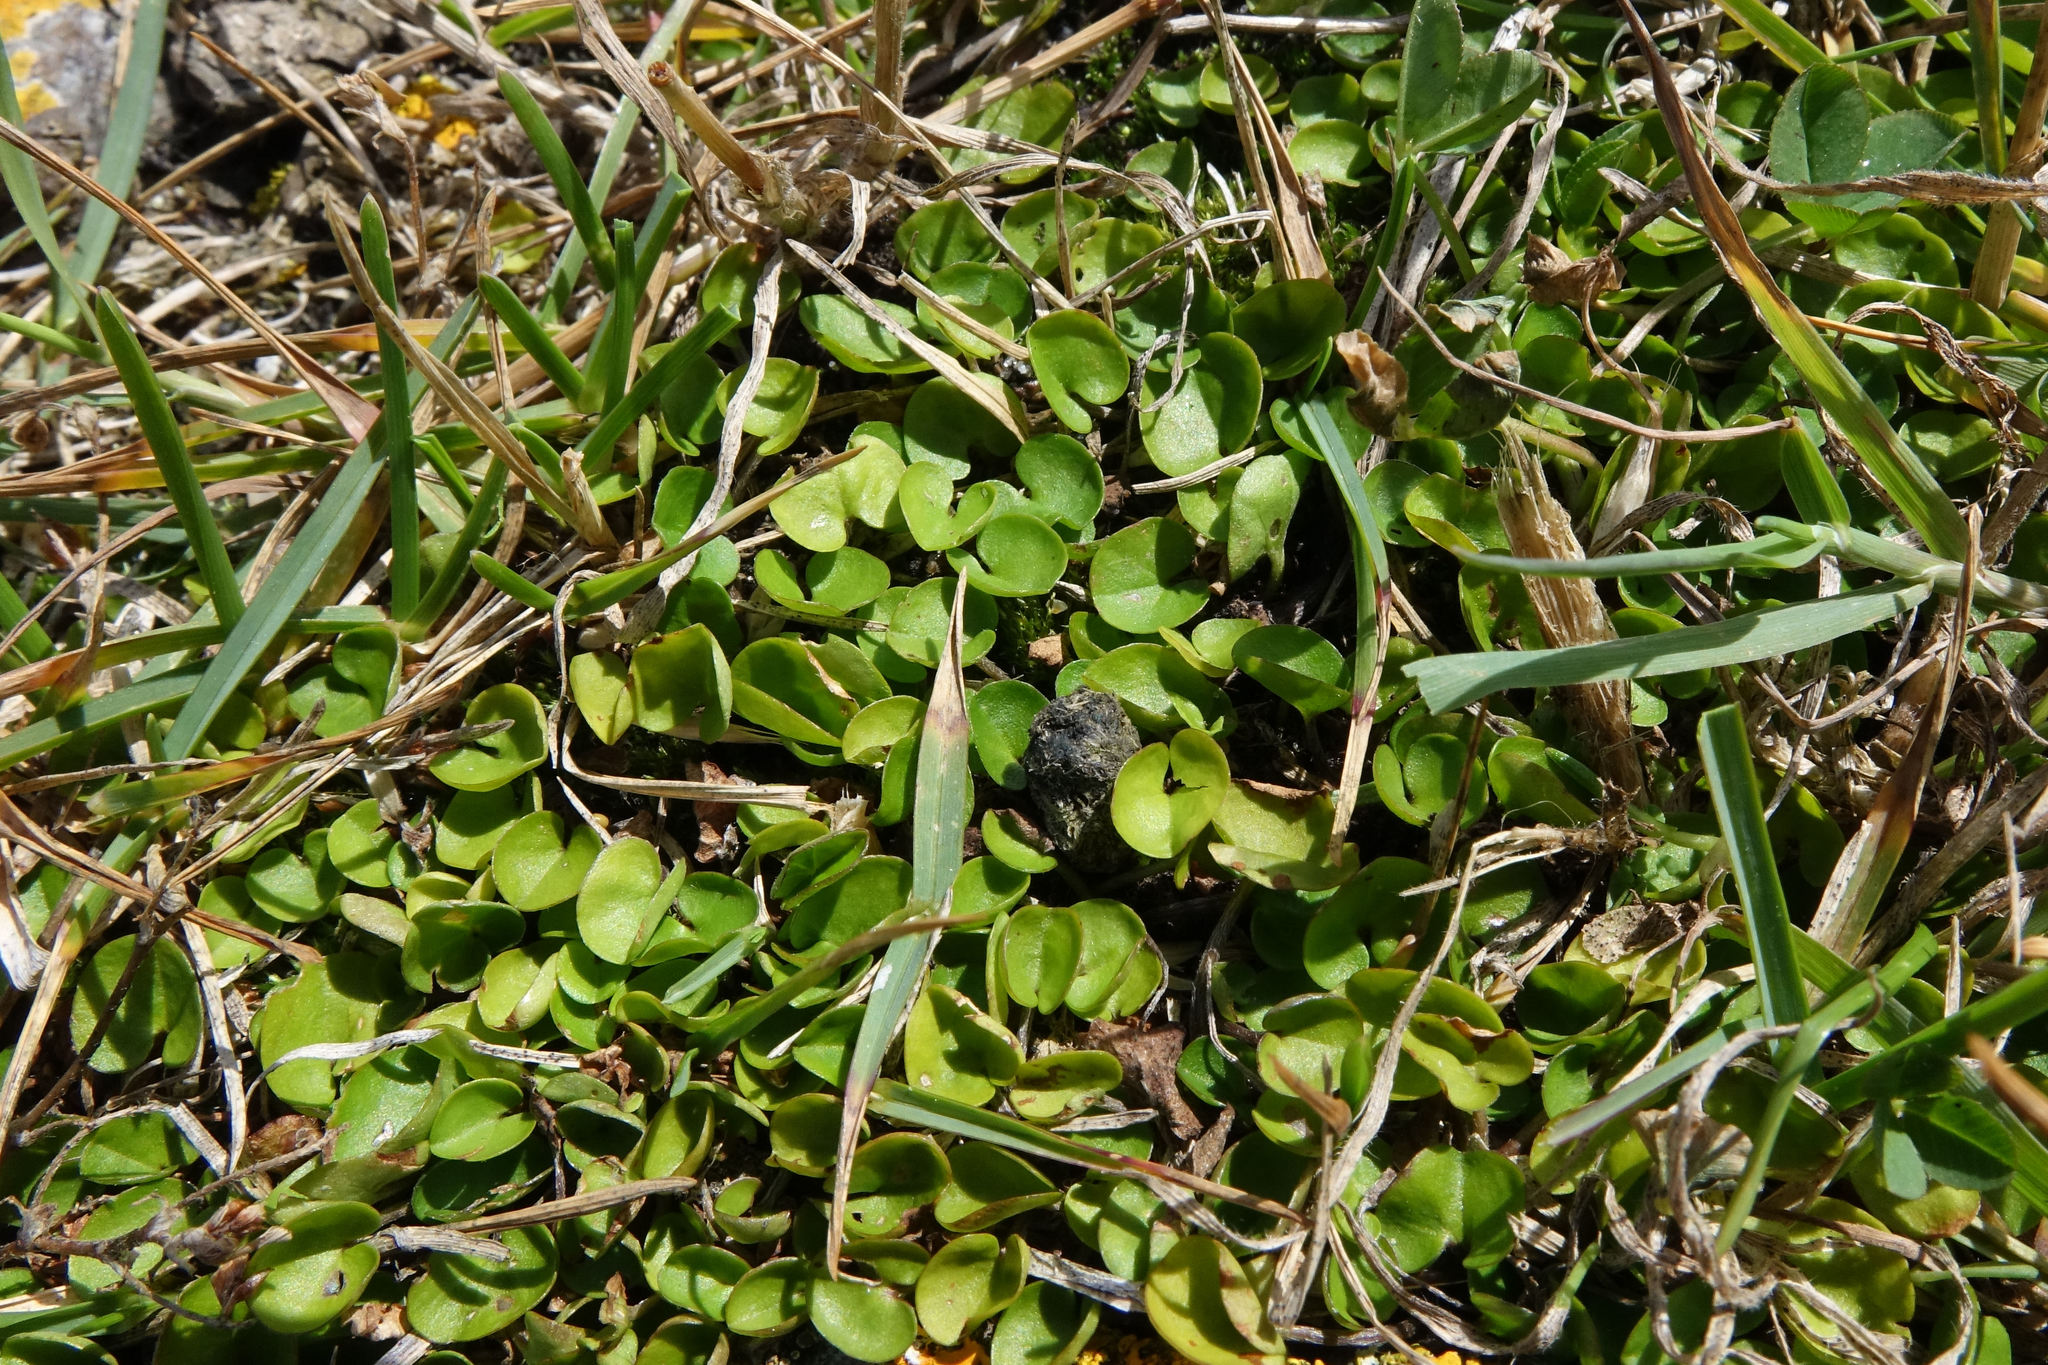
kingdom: Plantae
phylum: Tracheophyta
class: Magnoliopsida
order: Solanales
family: Convolvulaceae
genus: Dichondra
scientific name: Dichondra brevifolia
